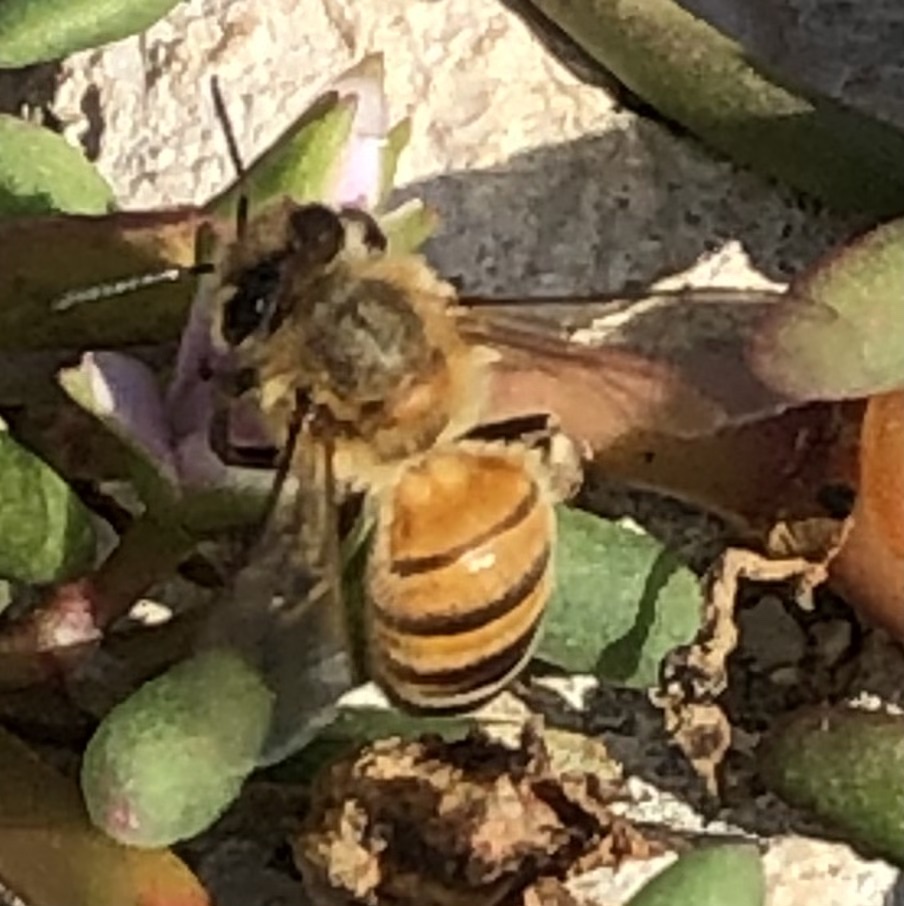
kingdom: Animalia
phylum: Arthropoda
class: Insecta
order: Hymenoptera
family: Apidae
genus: Apis
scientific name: Apis mellifera
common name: Honey bee
